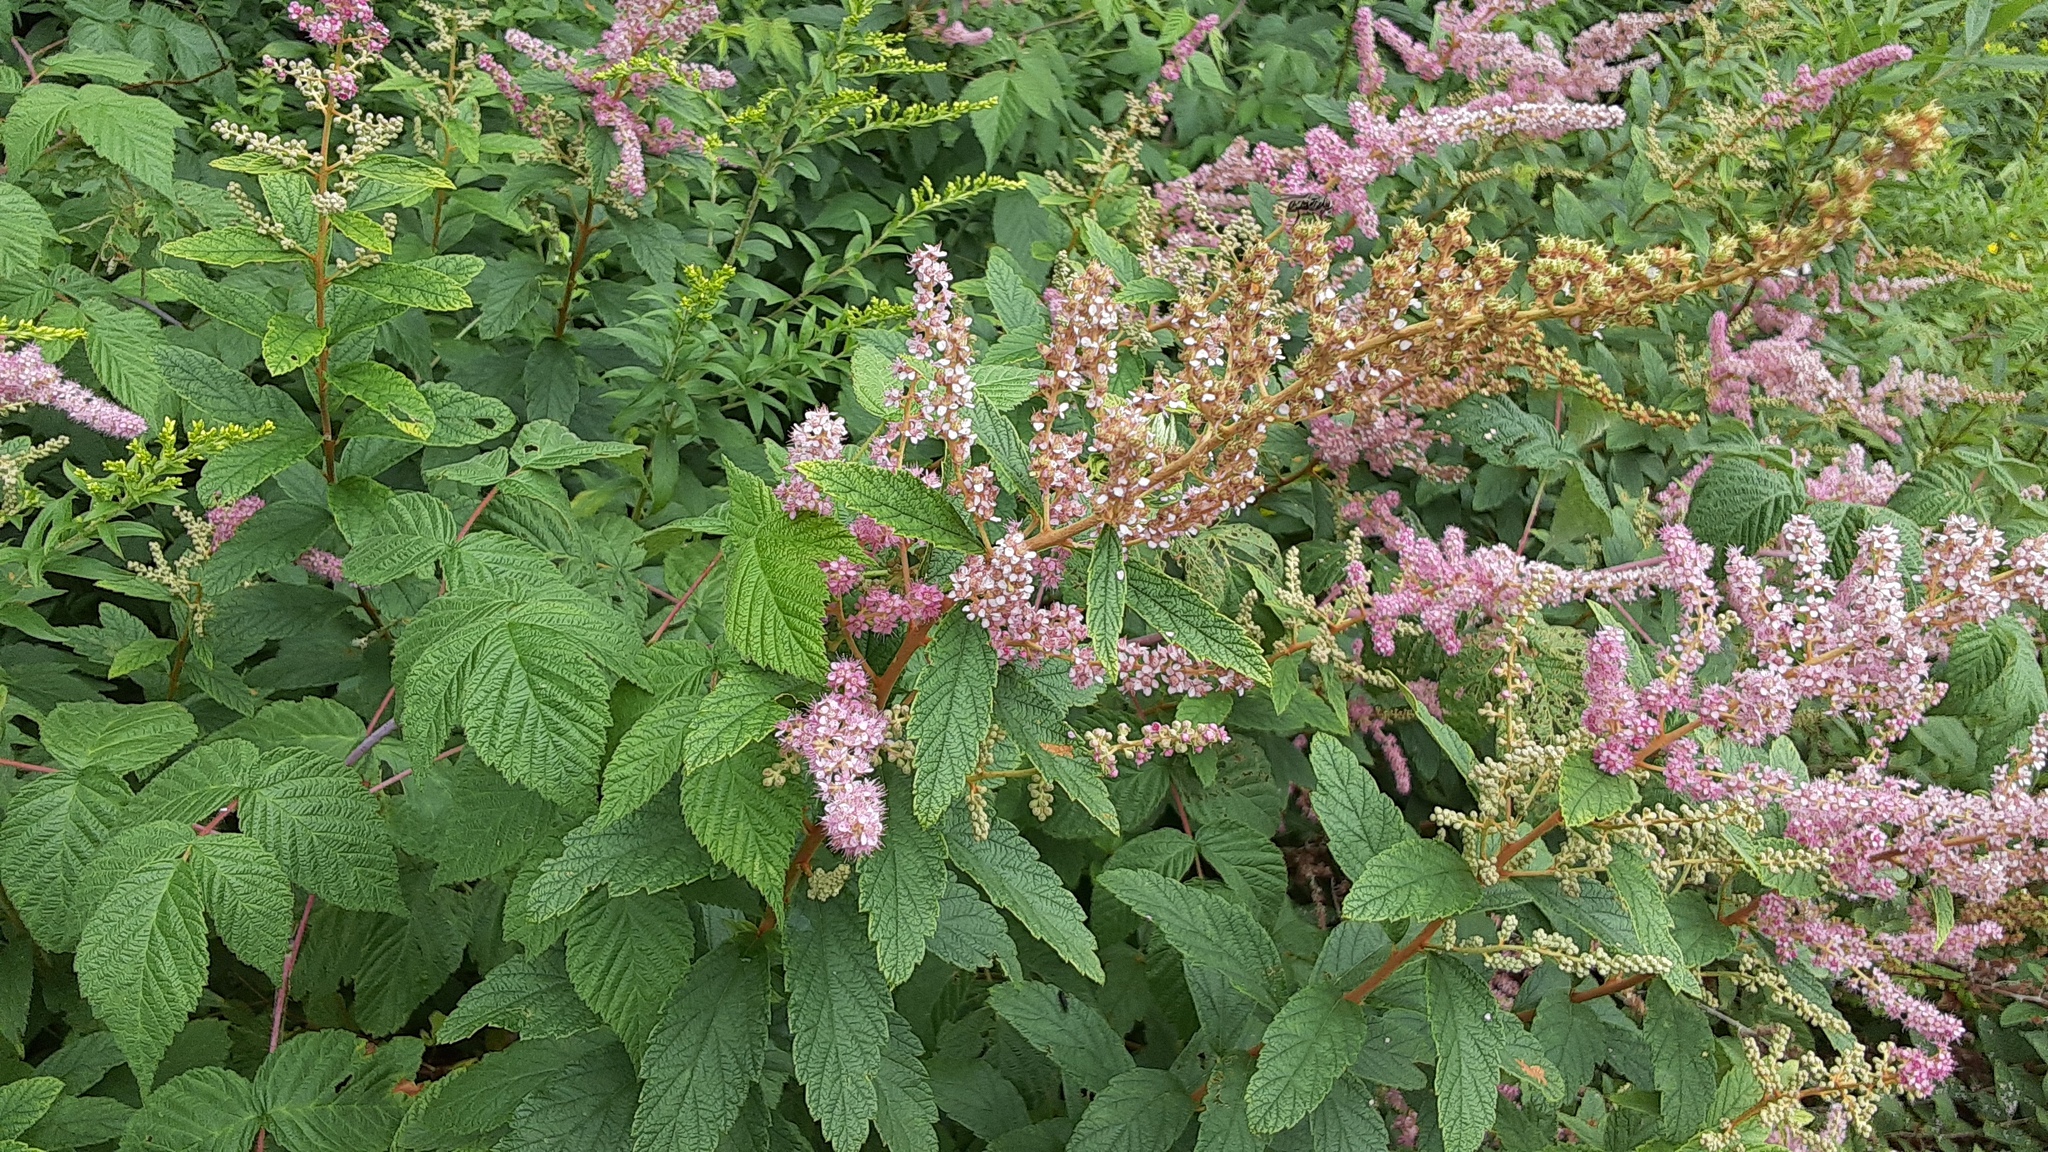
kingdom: Plantae
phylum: Tracheophyta
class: Magnoliopsida
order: Rosales
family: Rosaceae
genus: Spiraea
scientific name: Spiraea tomentosa
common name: Hardhack
